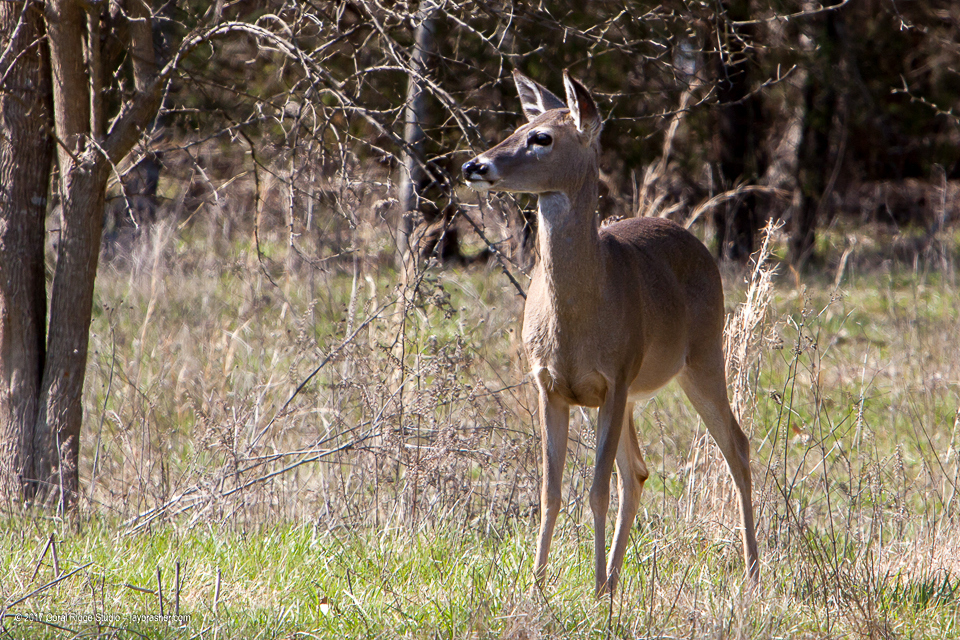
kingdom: Animalia
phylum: Chordata
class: Mammalia
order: Artiodactyla
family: Cervidae
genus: Odocoileus
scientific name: Odocoileus virginianus
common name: White-tailed deer
